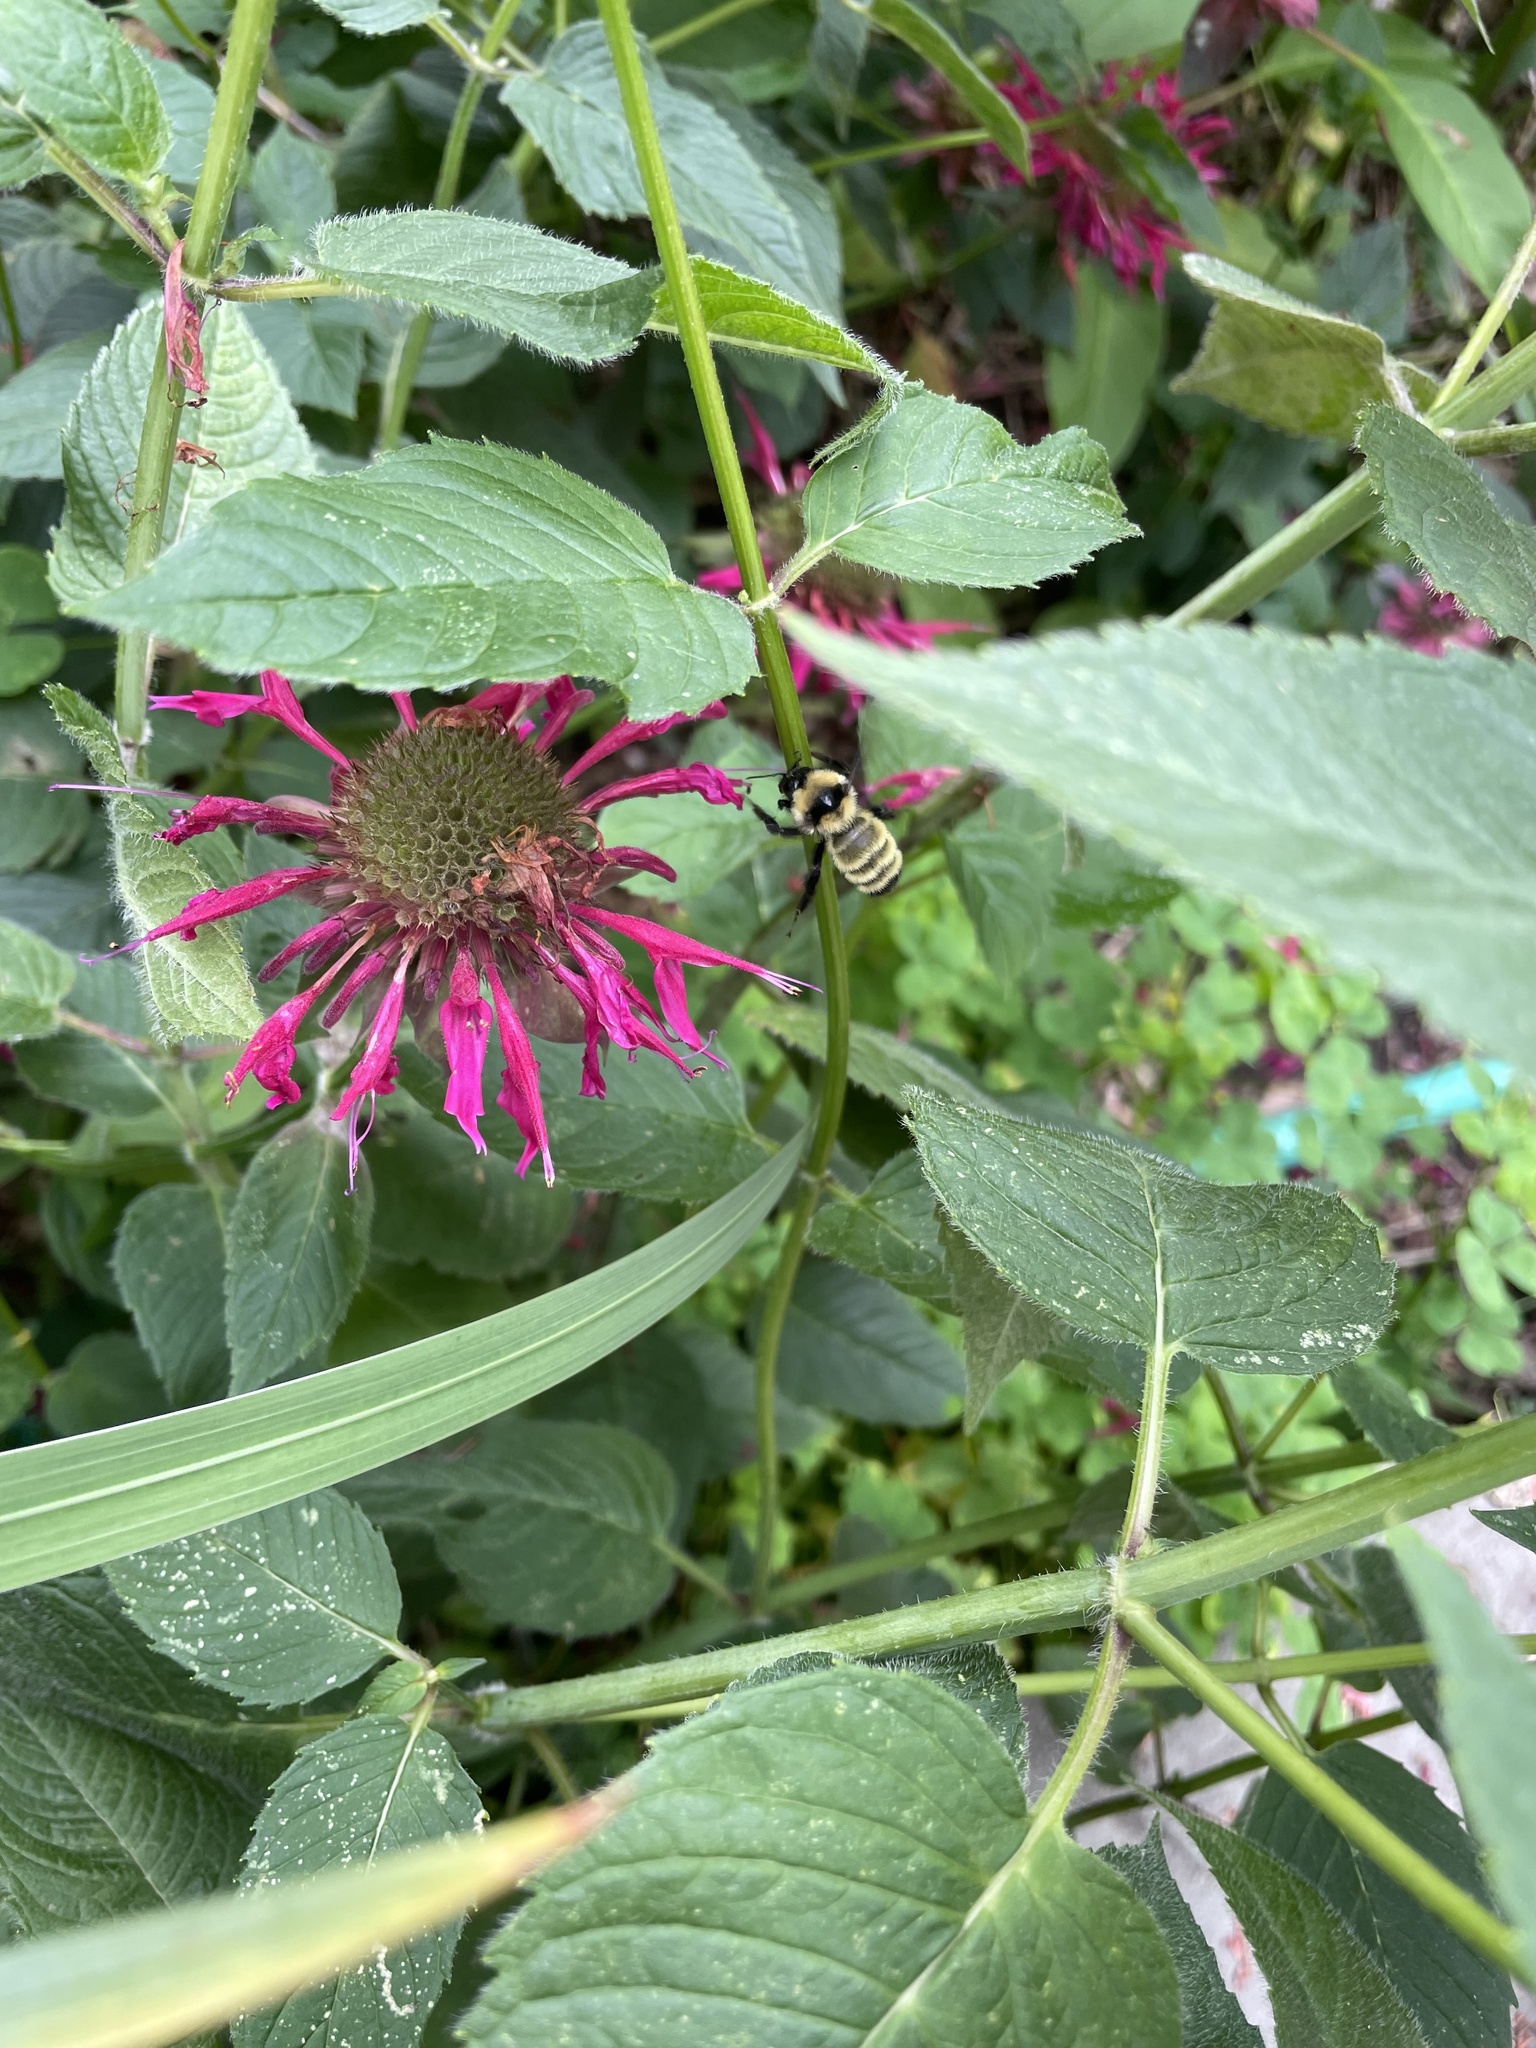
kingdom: Animalia
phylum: Arthropoda
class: Insecta
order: Hymenoptera
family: Apidae
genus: Bombus
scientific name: Bombus fervidus
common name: Yellow bumble bee
